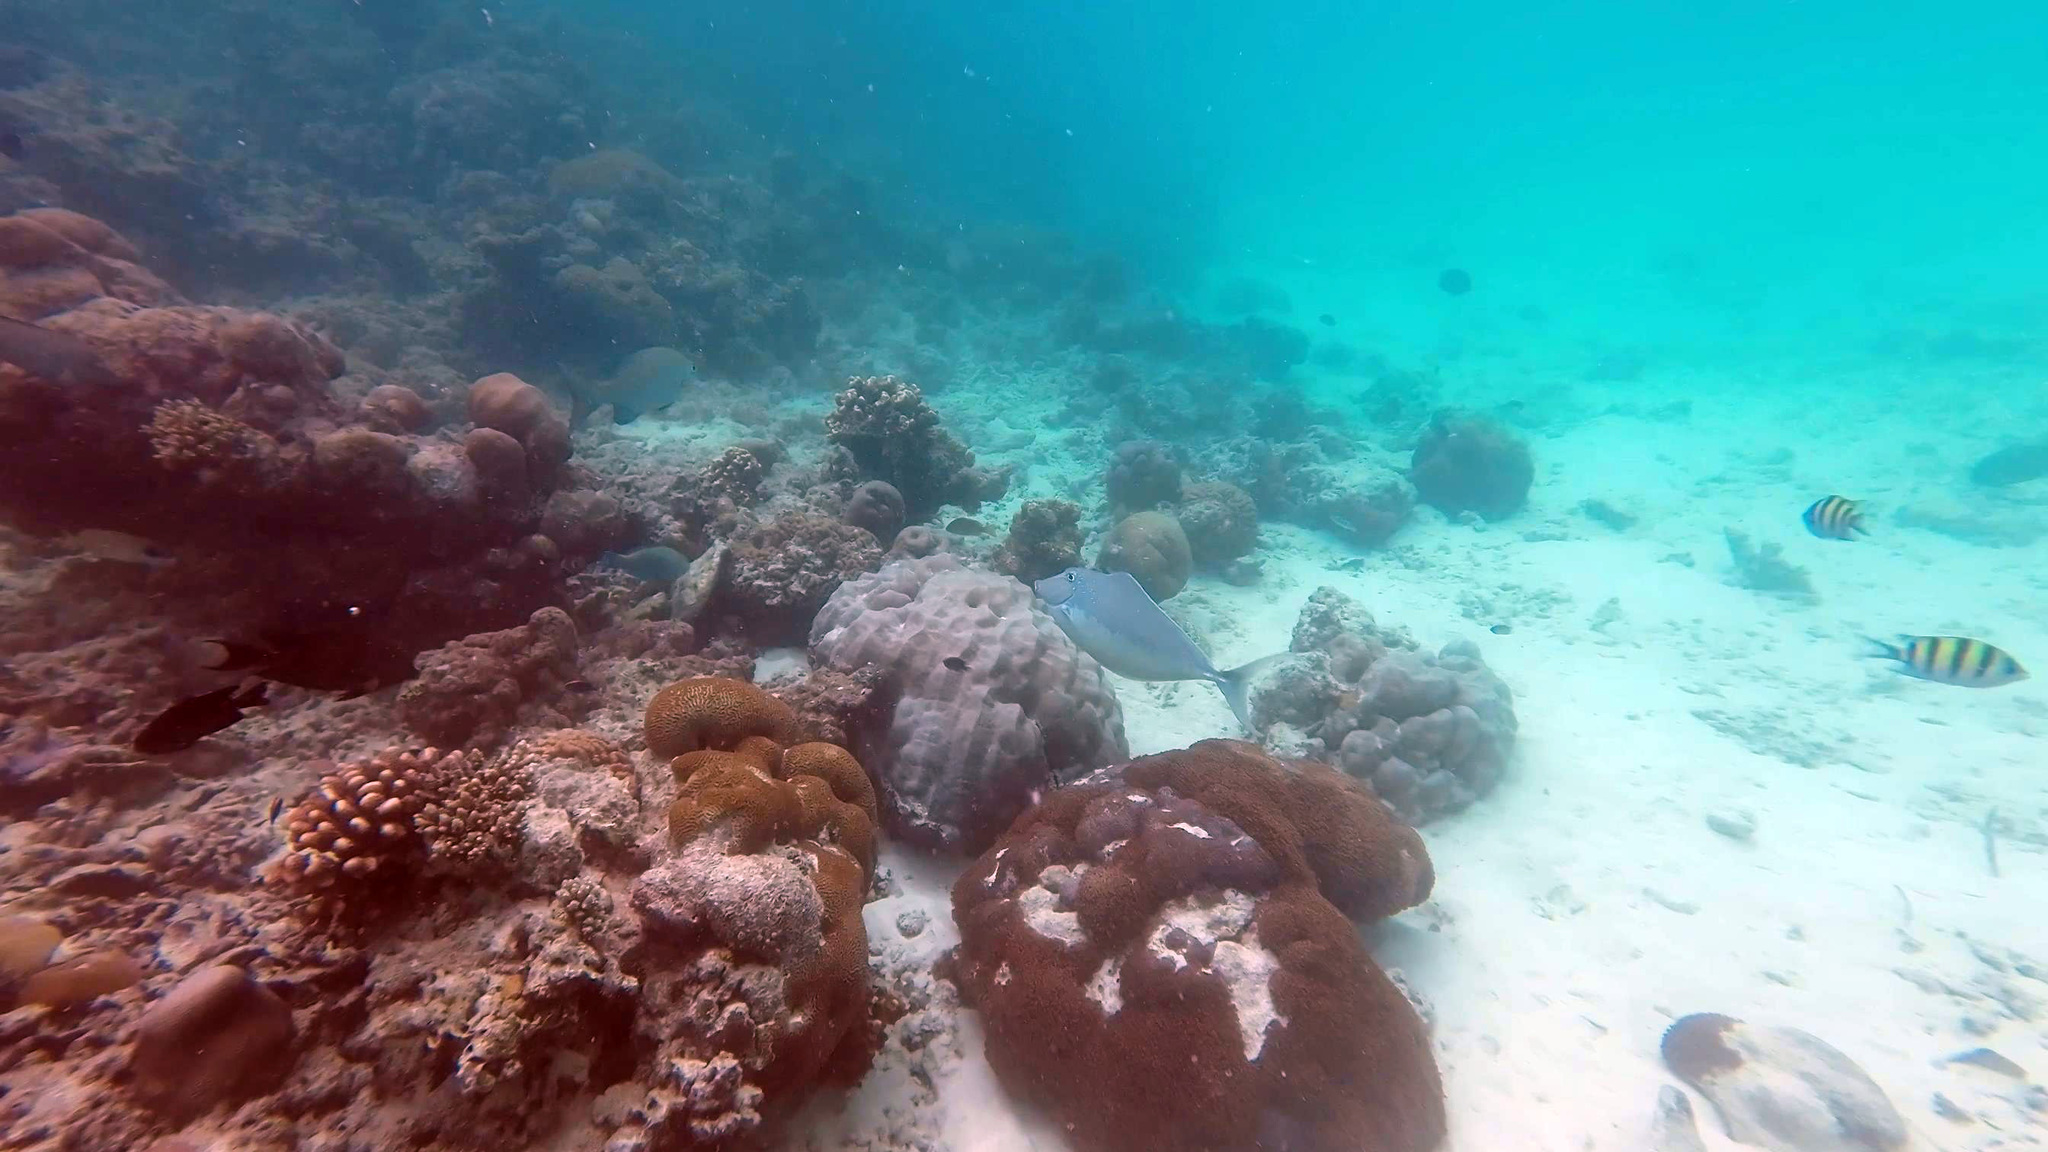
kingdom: Animalia
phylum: Chordata
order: Perciformes
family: Acanthuridae
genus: Naso
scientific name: Naso brachycentron
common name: Humpback unicornfish
